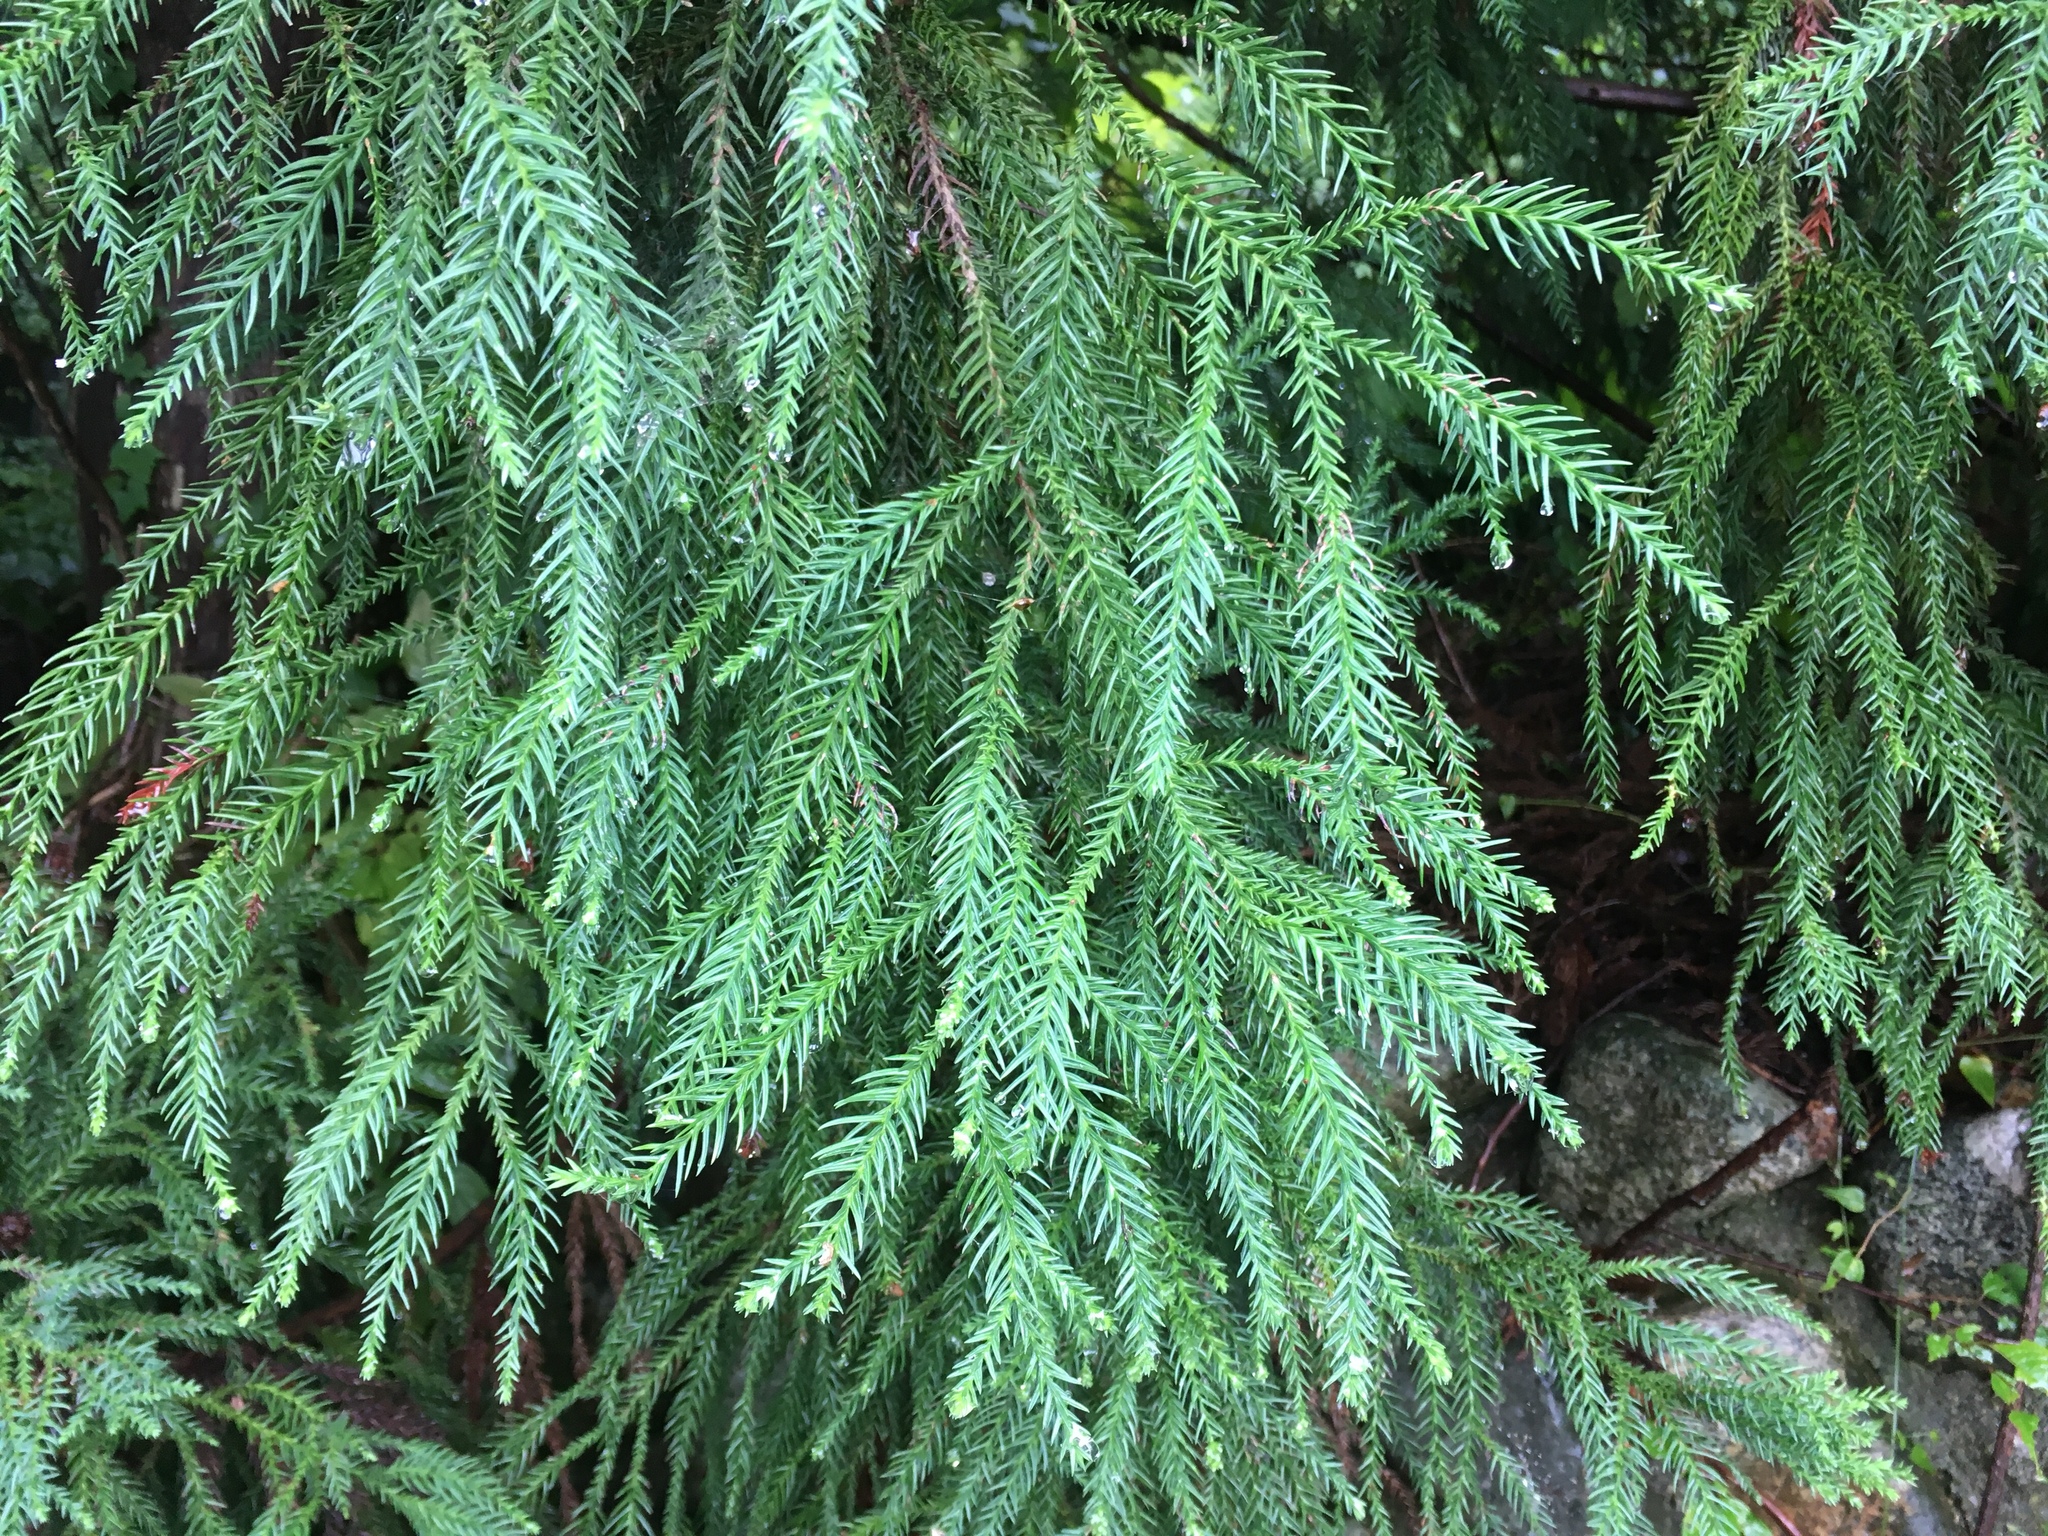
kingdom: Plantae
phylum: Tracheophyta
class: Pinopsida
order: Pinales
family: Cupressaceae
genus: Cryptomeria
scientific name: Cryptomeria japonica
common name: Japanese cedar
